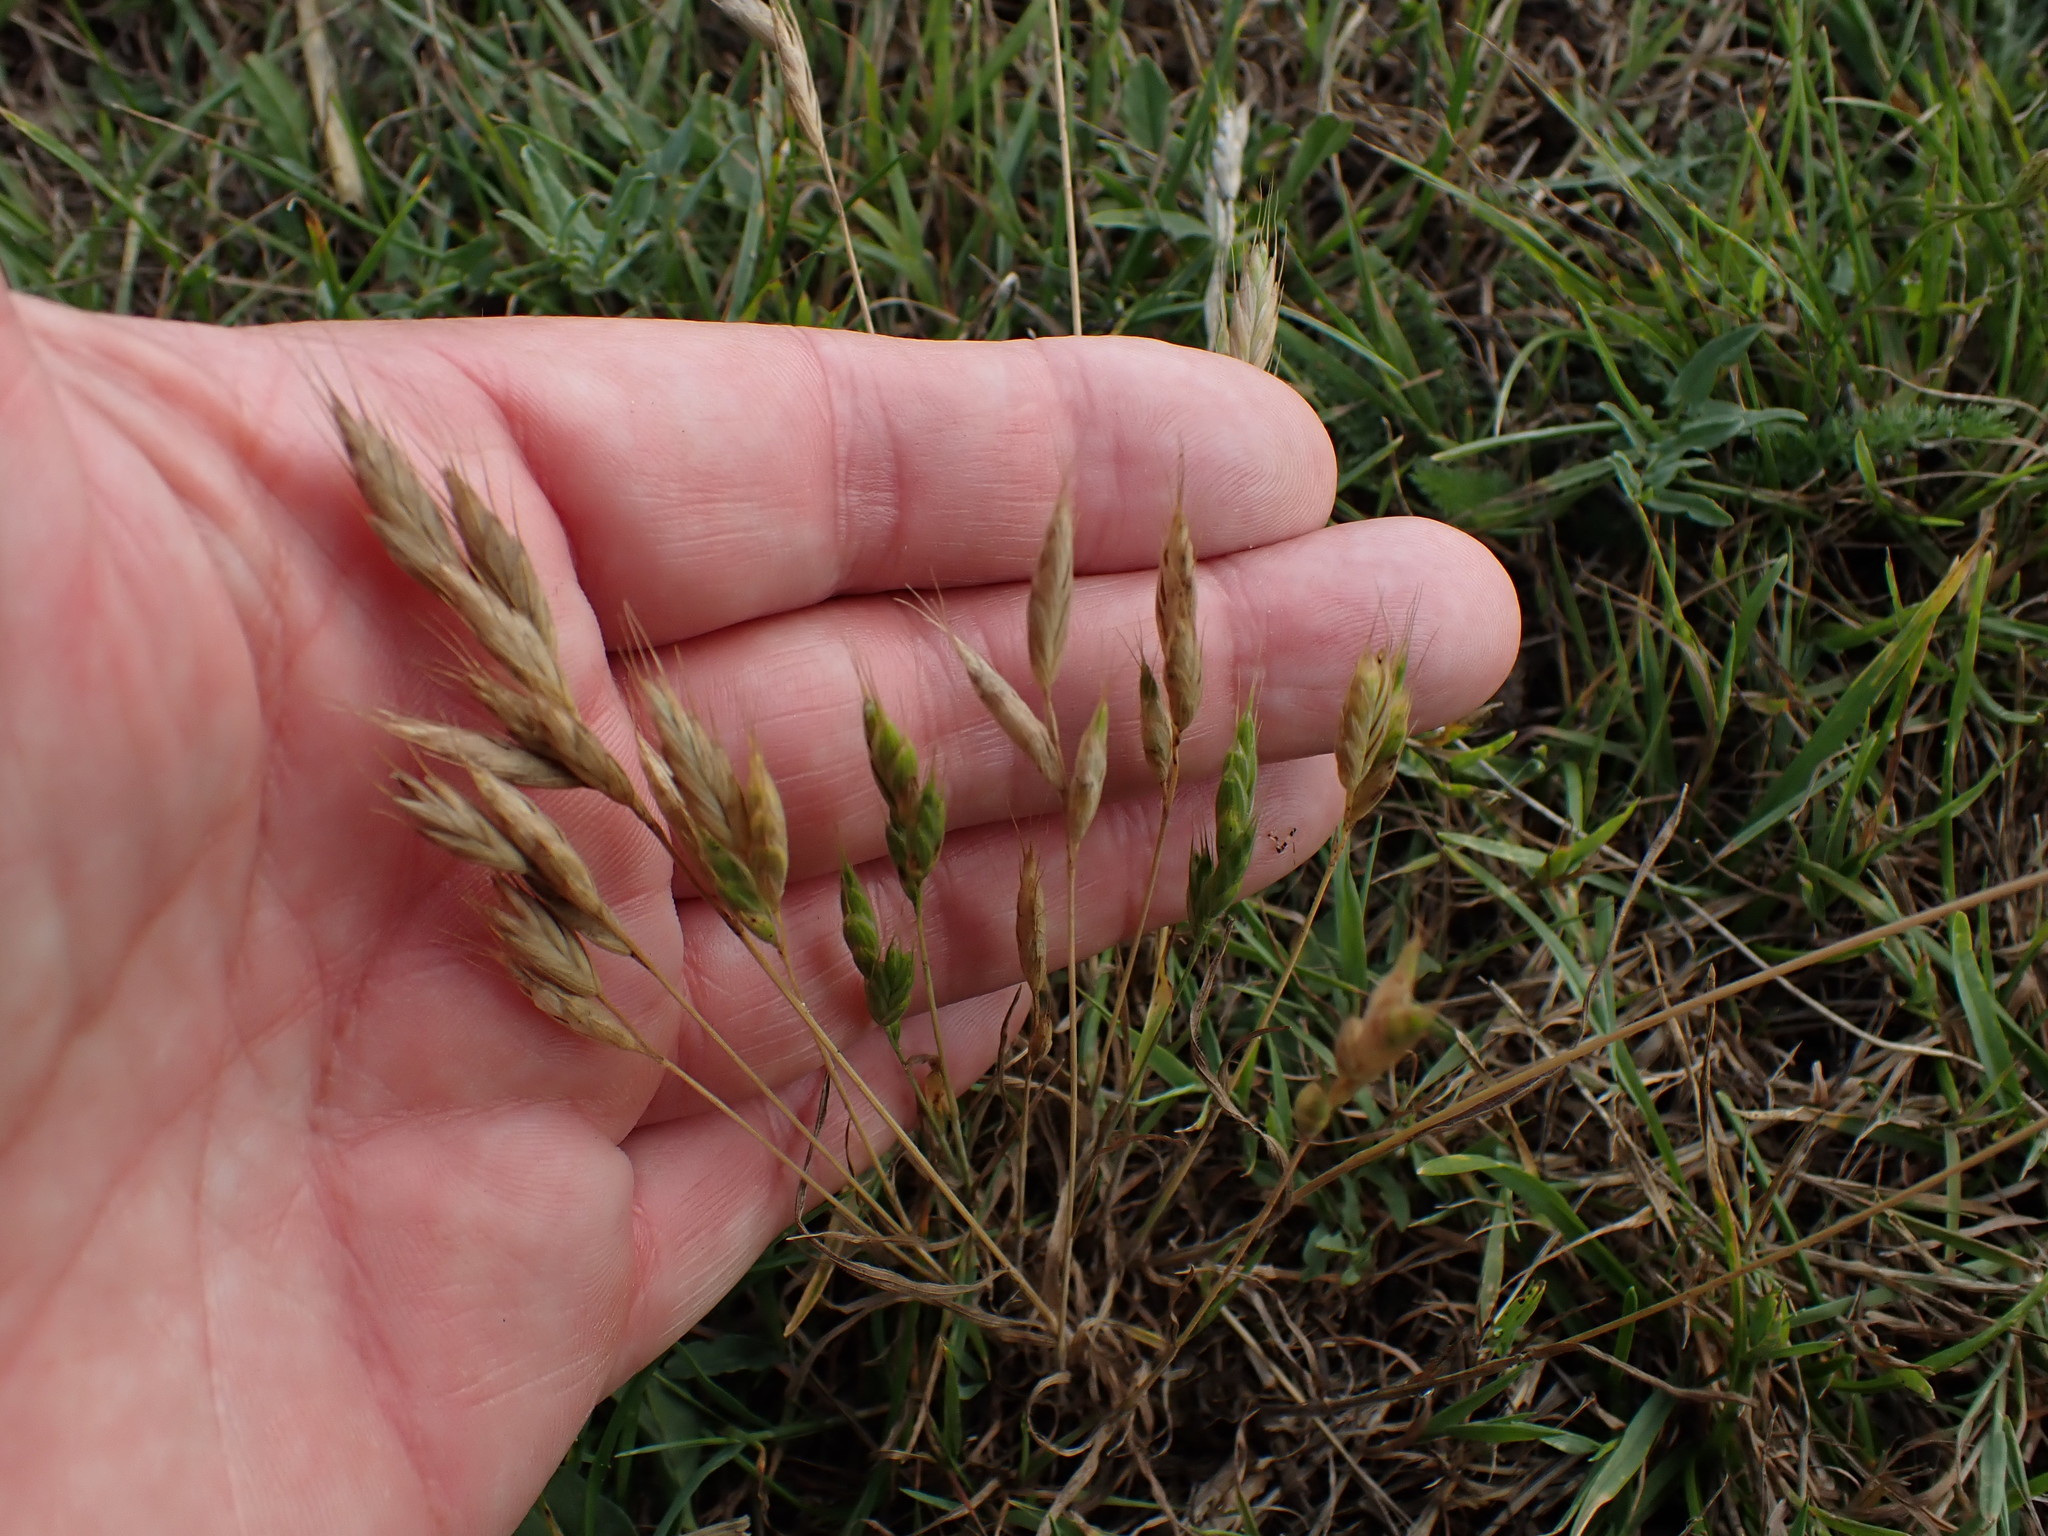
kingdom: Plantae
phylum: Tracheophyta
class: Liliopsida
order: Poales
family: Poaceae
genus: Bromus
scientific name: Bromus hordeaceus
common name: Soft brome
